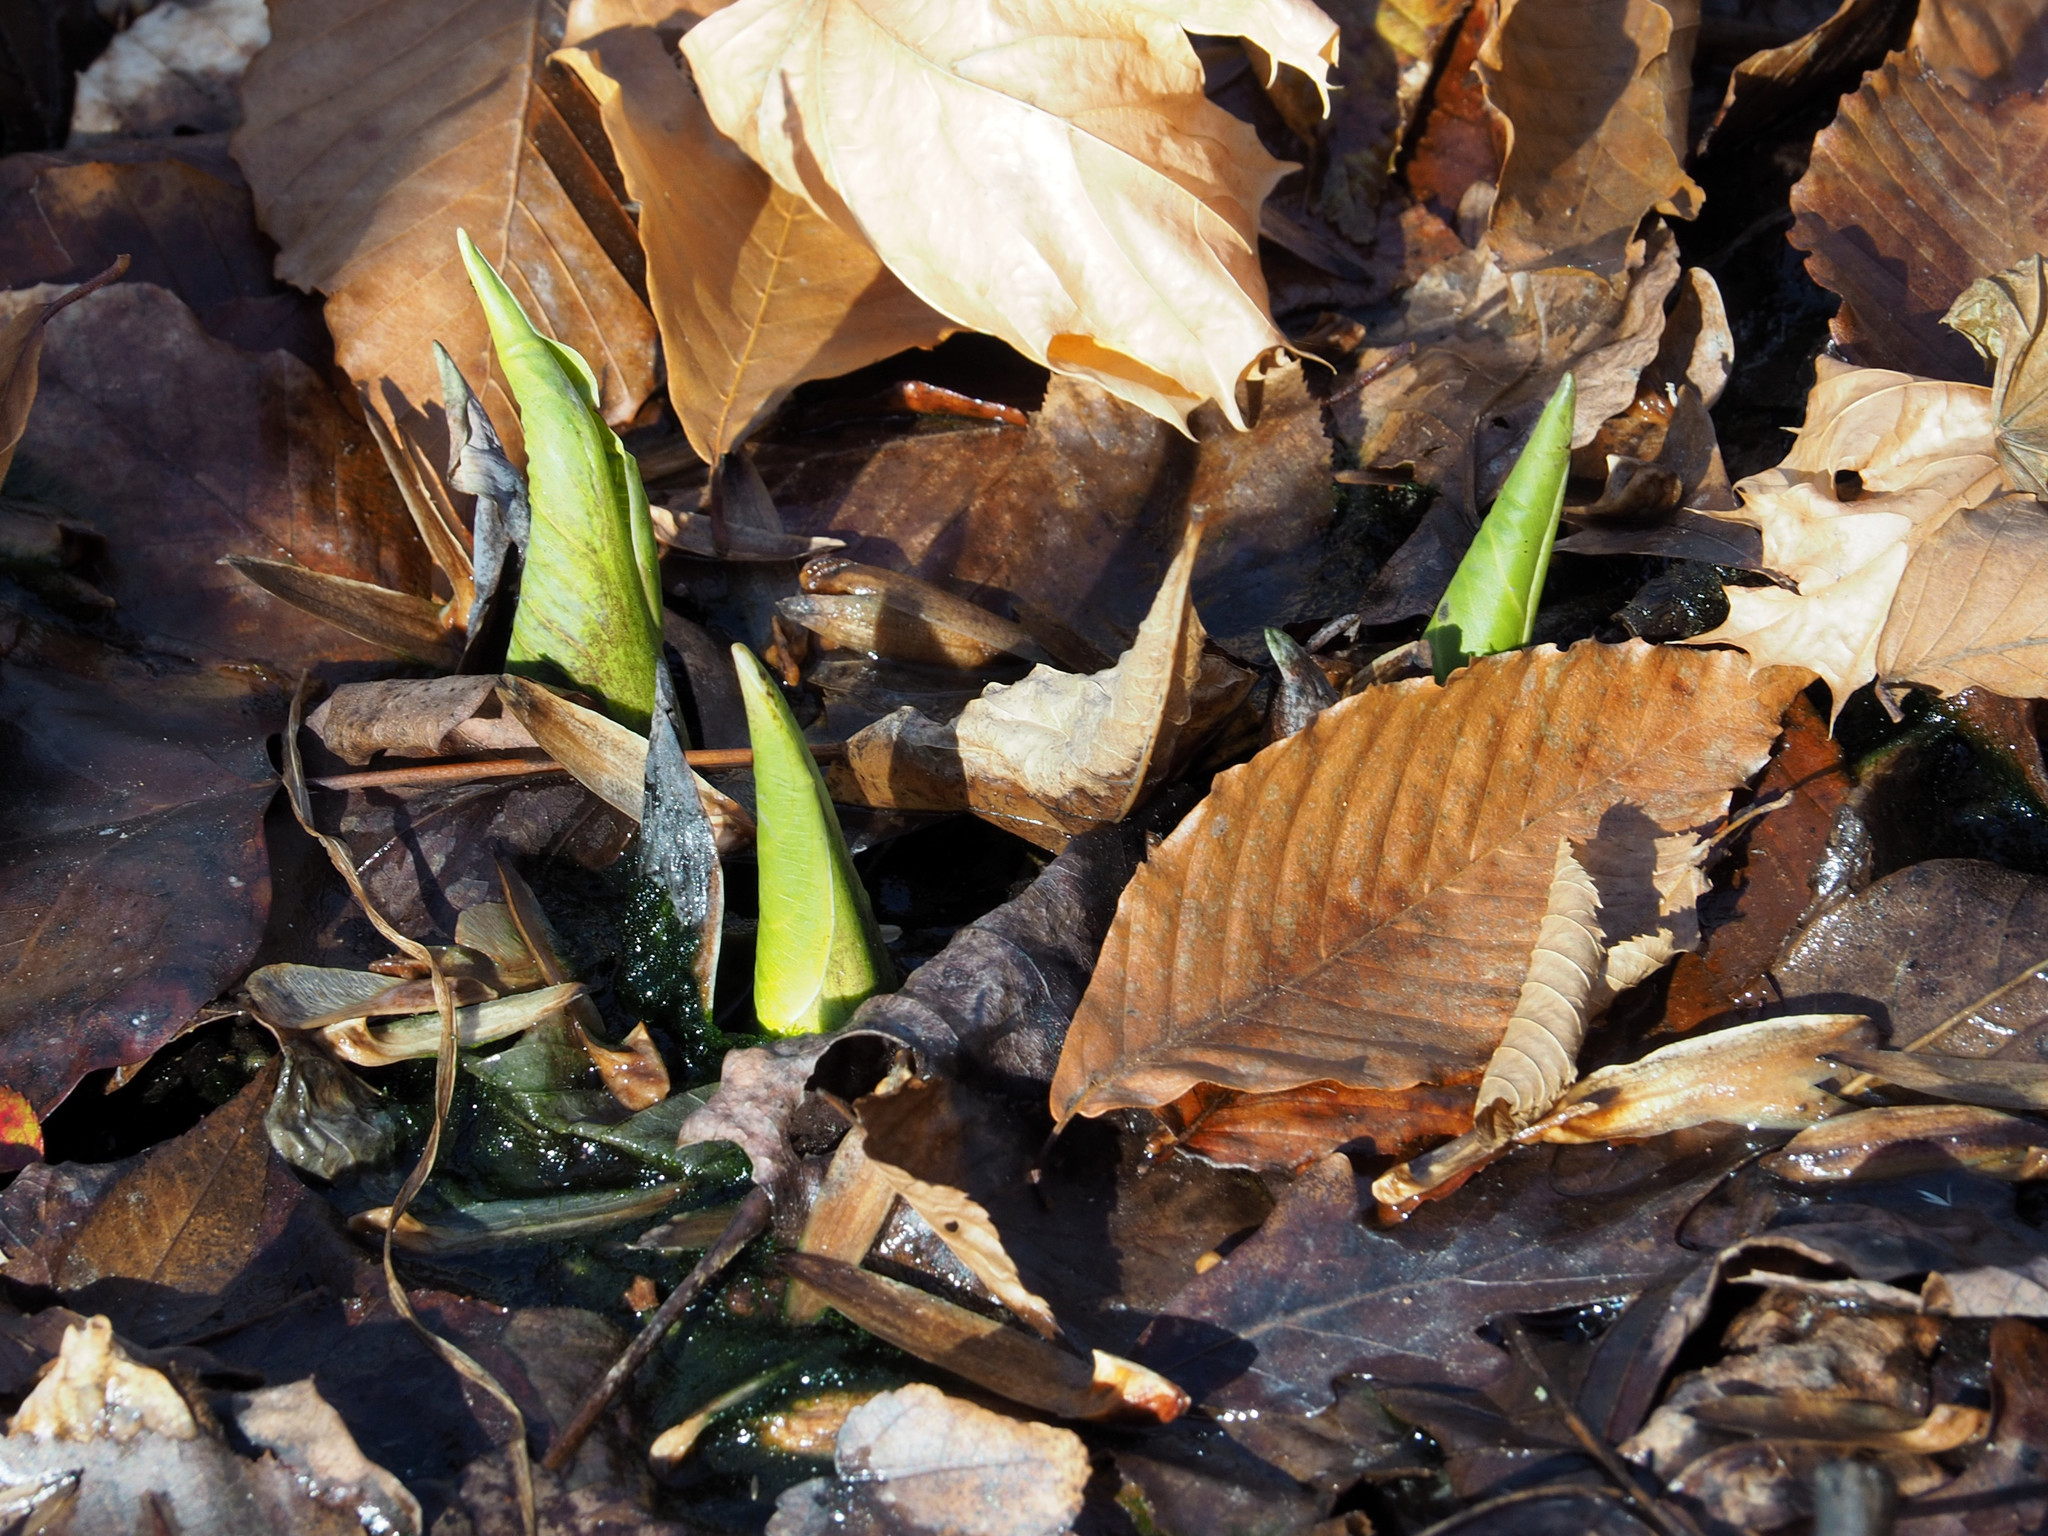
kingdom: Plantae
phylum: Tracheophyta
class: Liliopsida
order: Alismatales
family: Araceae
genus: Symplocarpus
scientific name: Symplocarpus foetidus
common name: Eastern skunk cabbage
